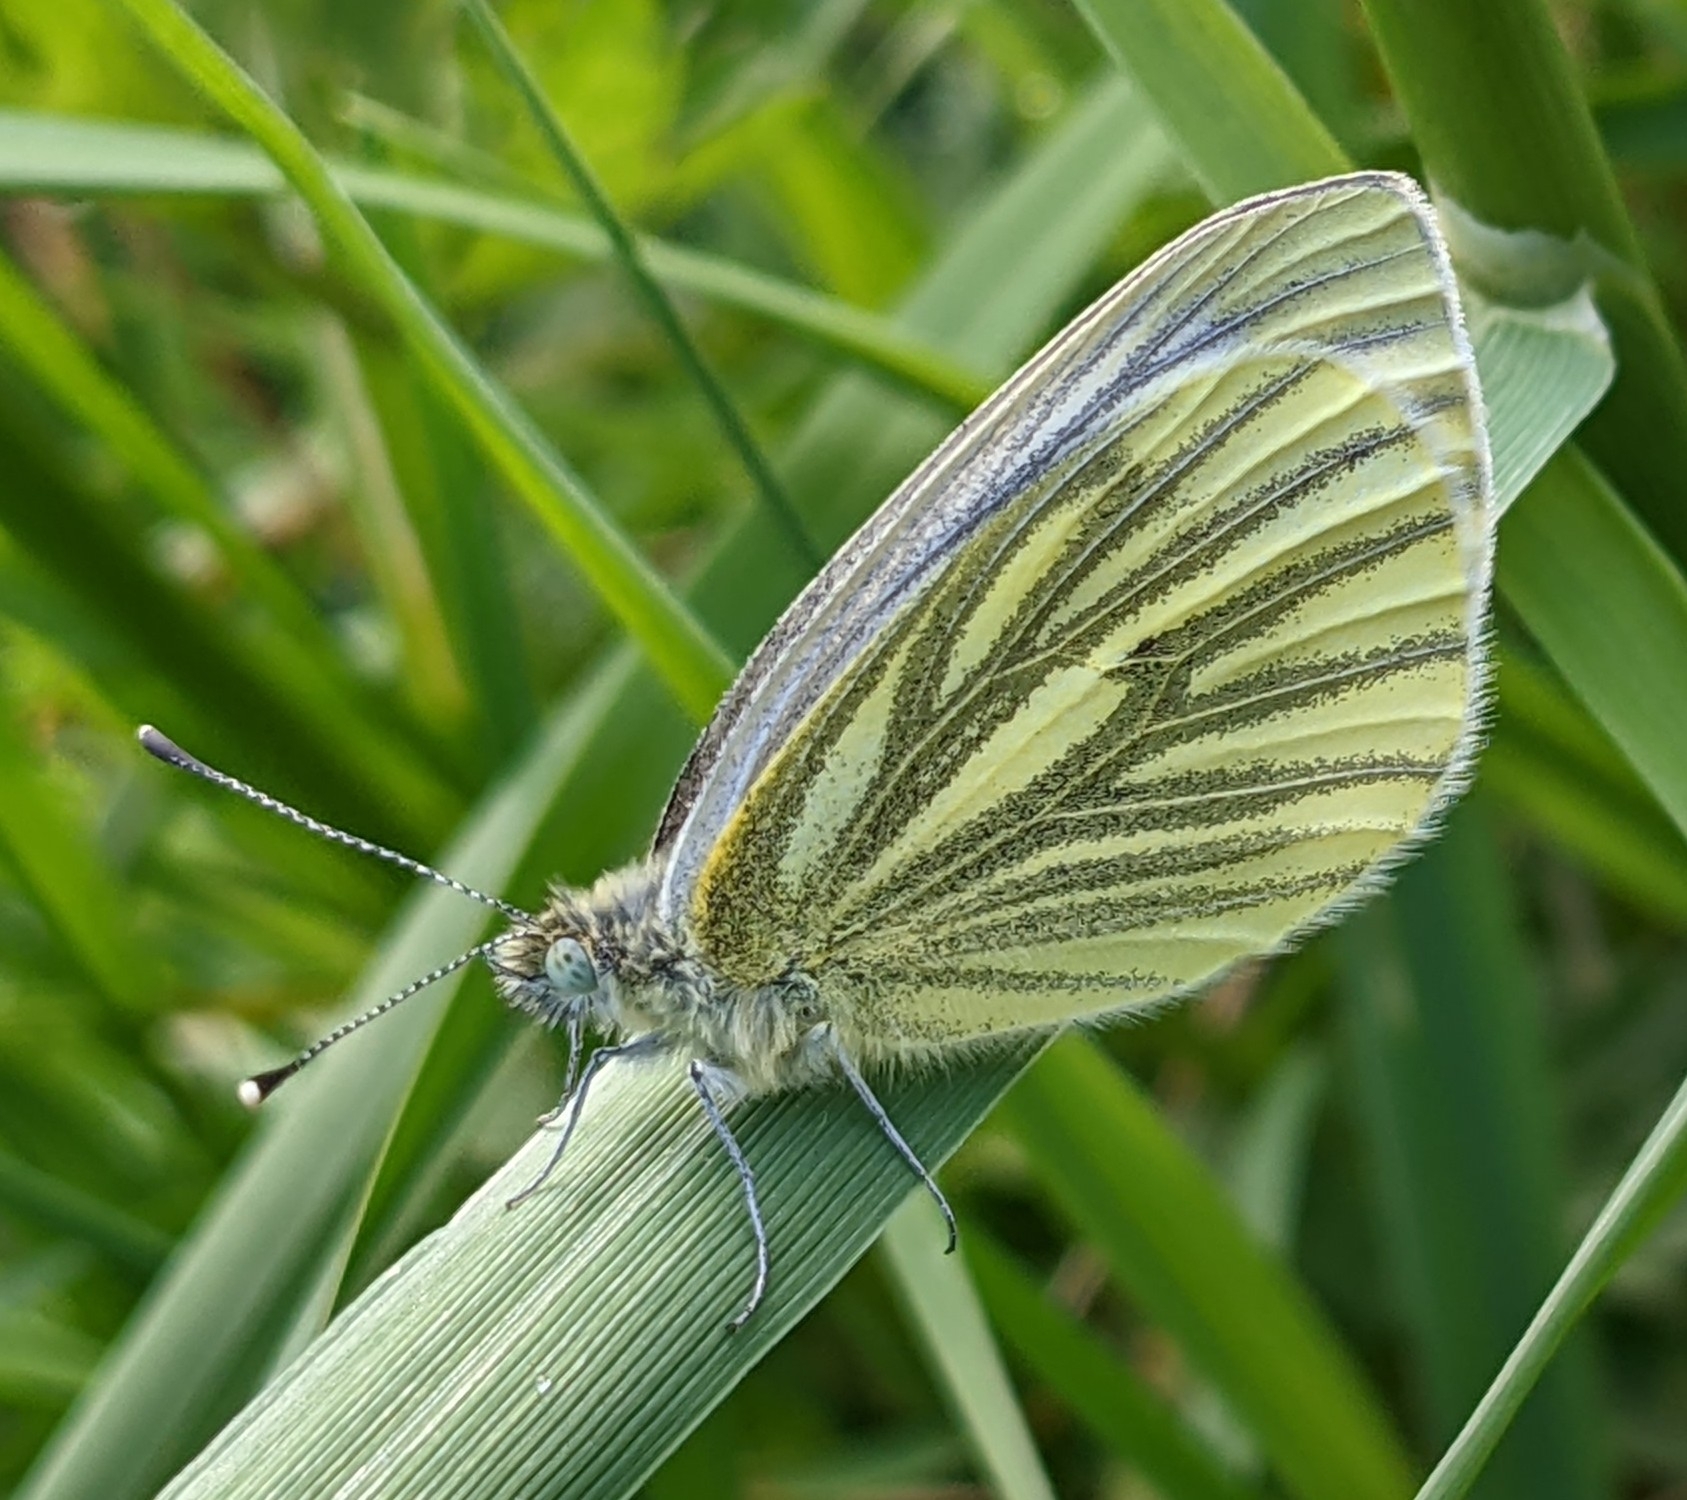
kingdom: Animalia
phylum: Arthropoda
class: Insecta
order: Lepidoptera
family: Pieridae
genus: Pieris
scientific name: Pieris napi
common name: Green-veined white
